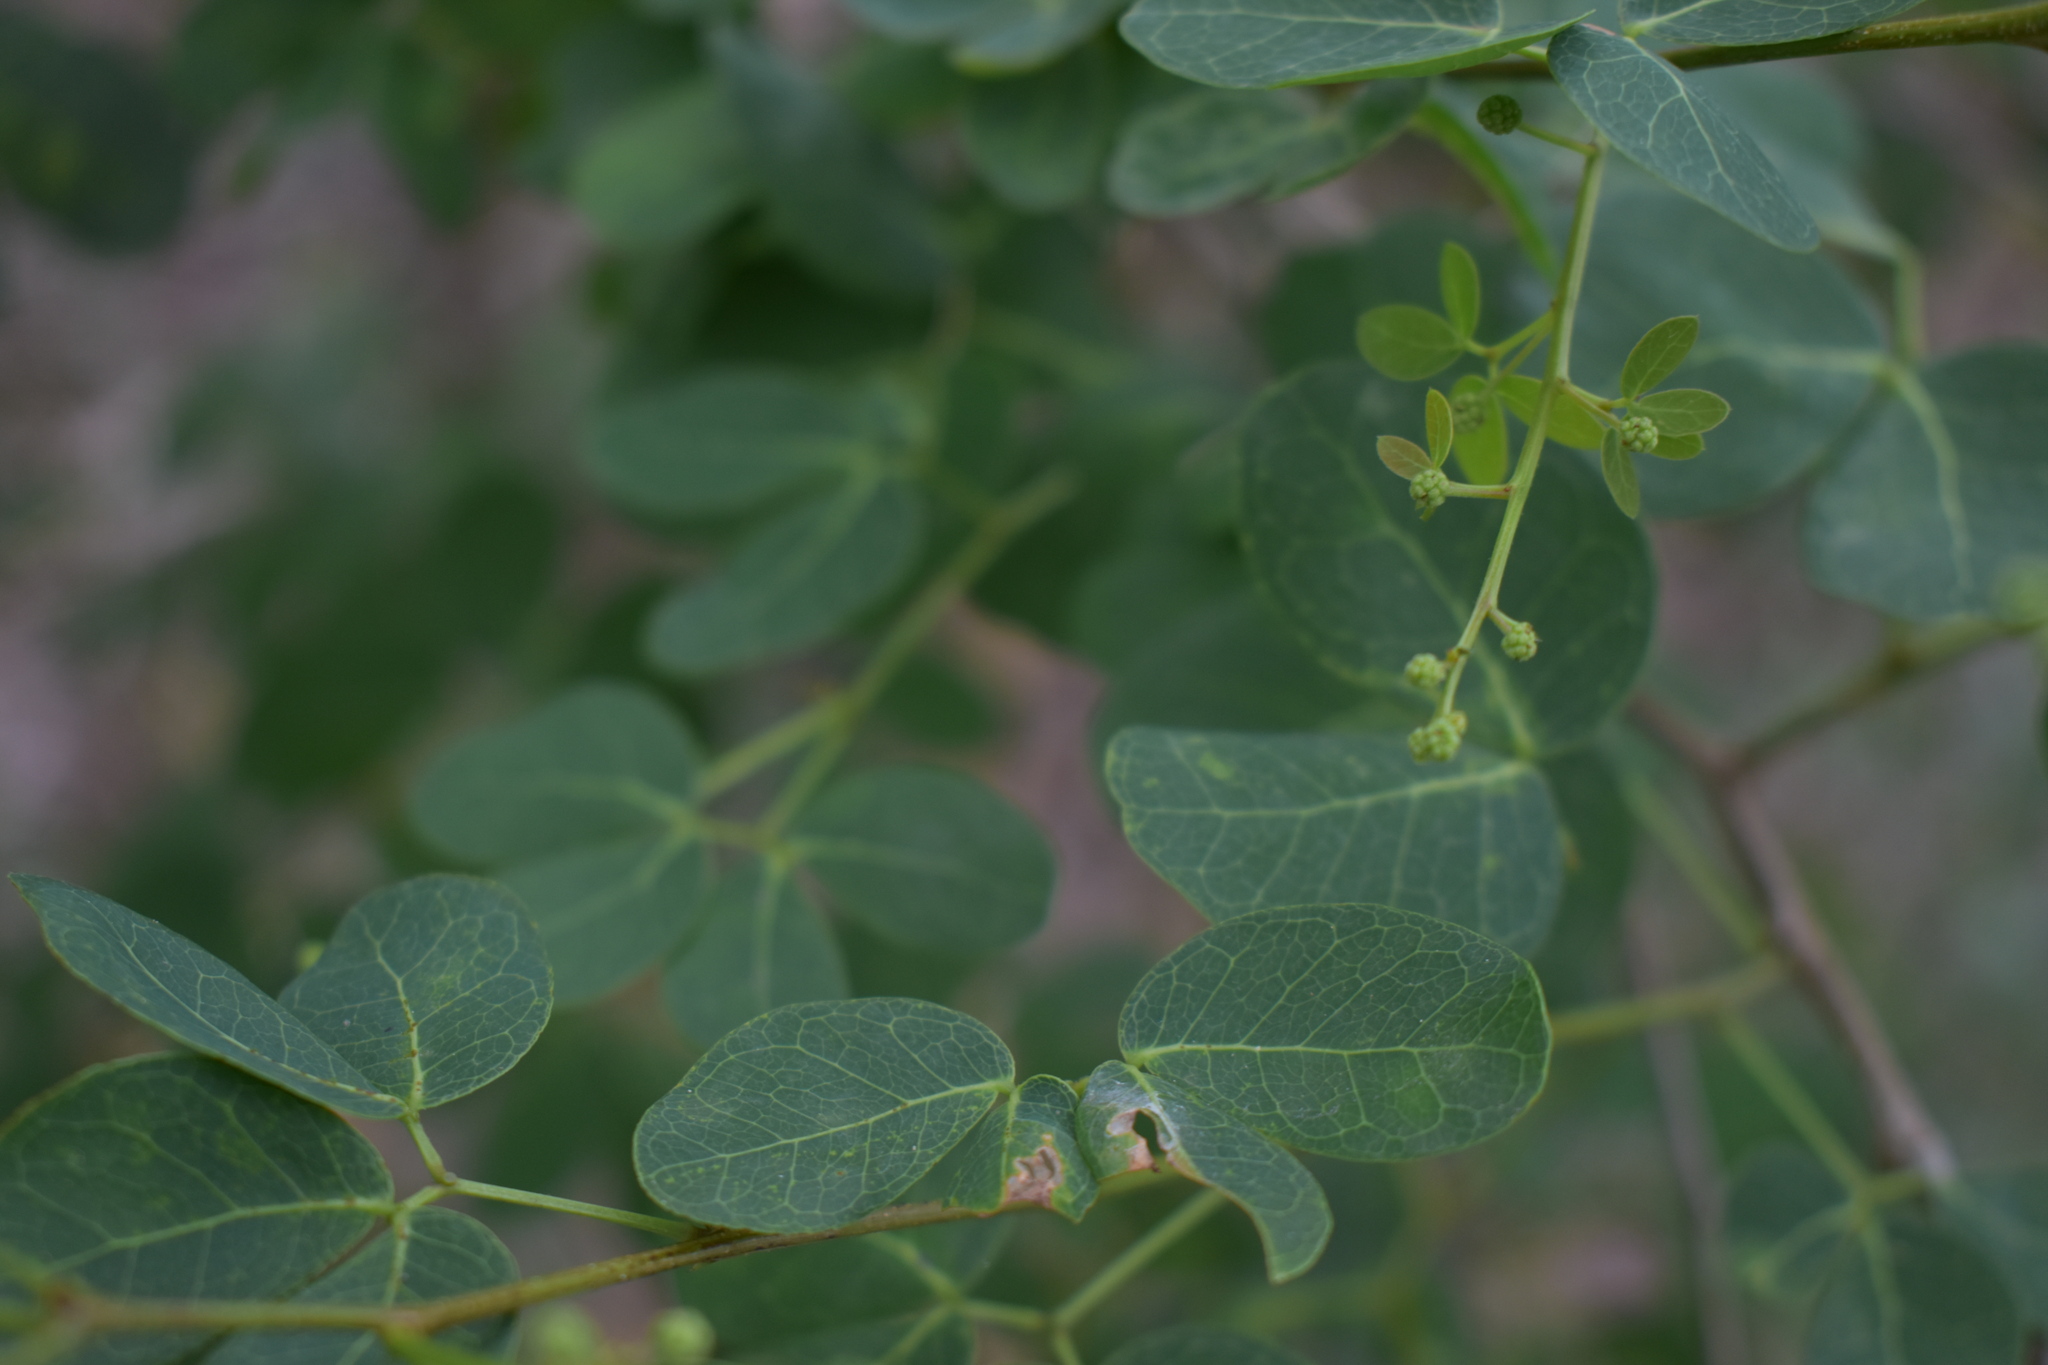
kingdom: Plantae
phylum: Tracheophyta
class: Magnoliopsida
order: Fabales
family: Fabaceae
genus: Pithecellobium
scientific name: Pithecellobium unguis-cati
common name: Cat's-claw
